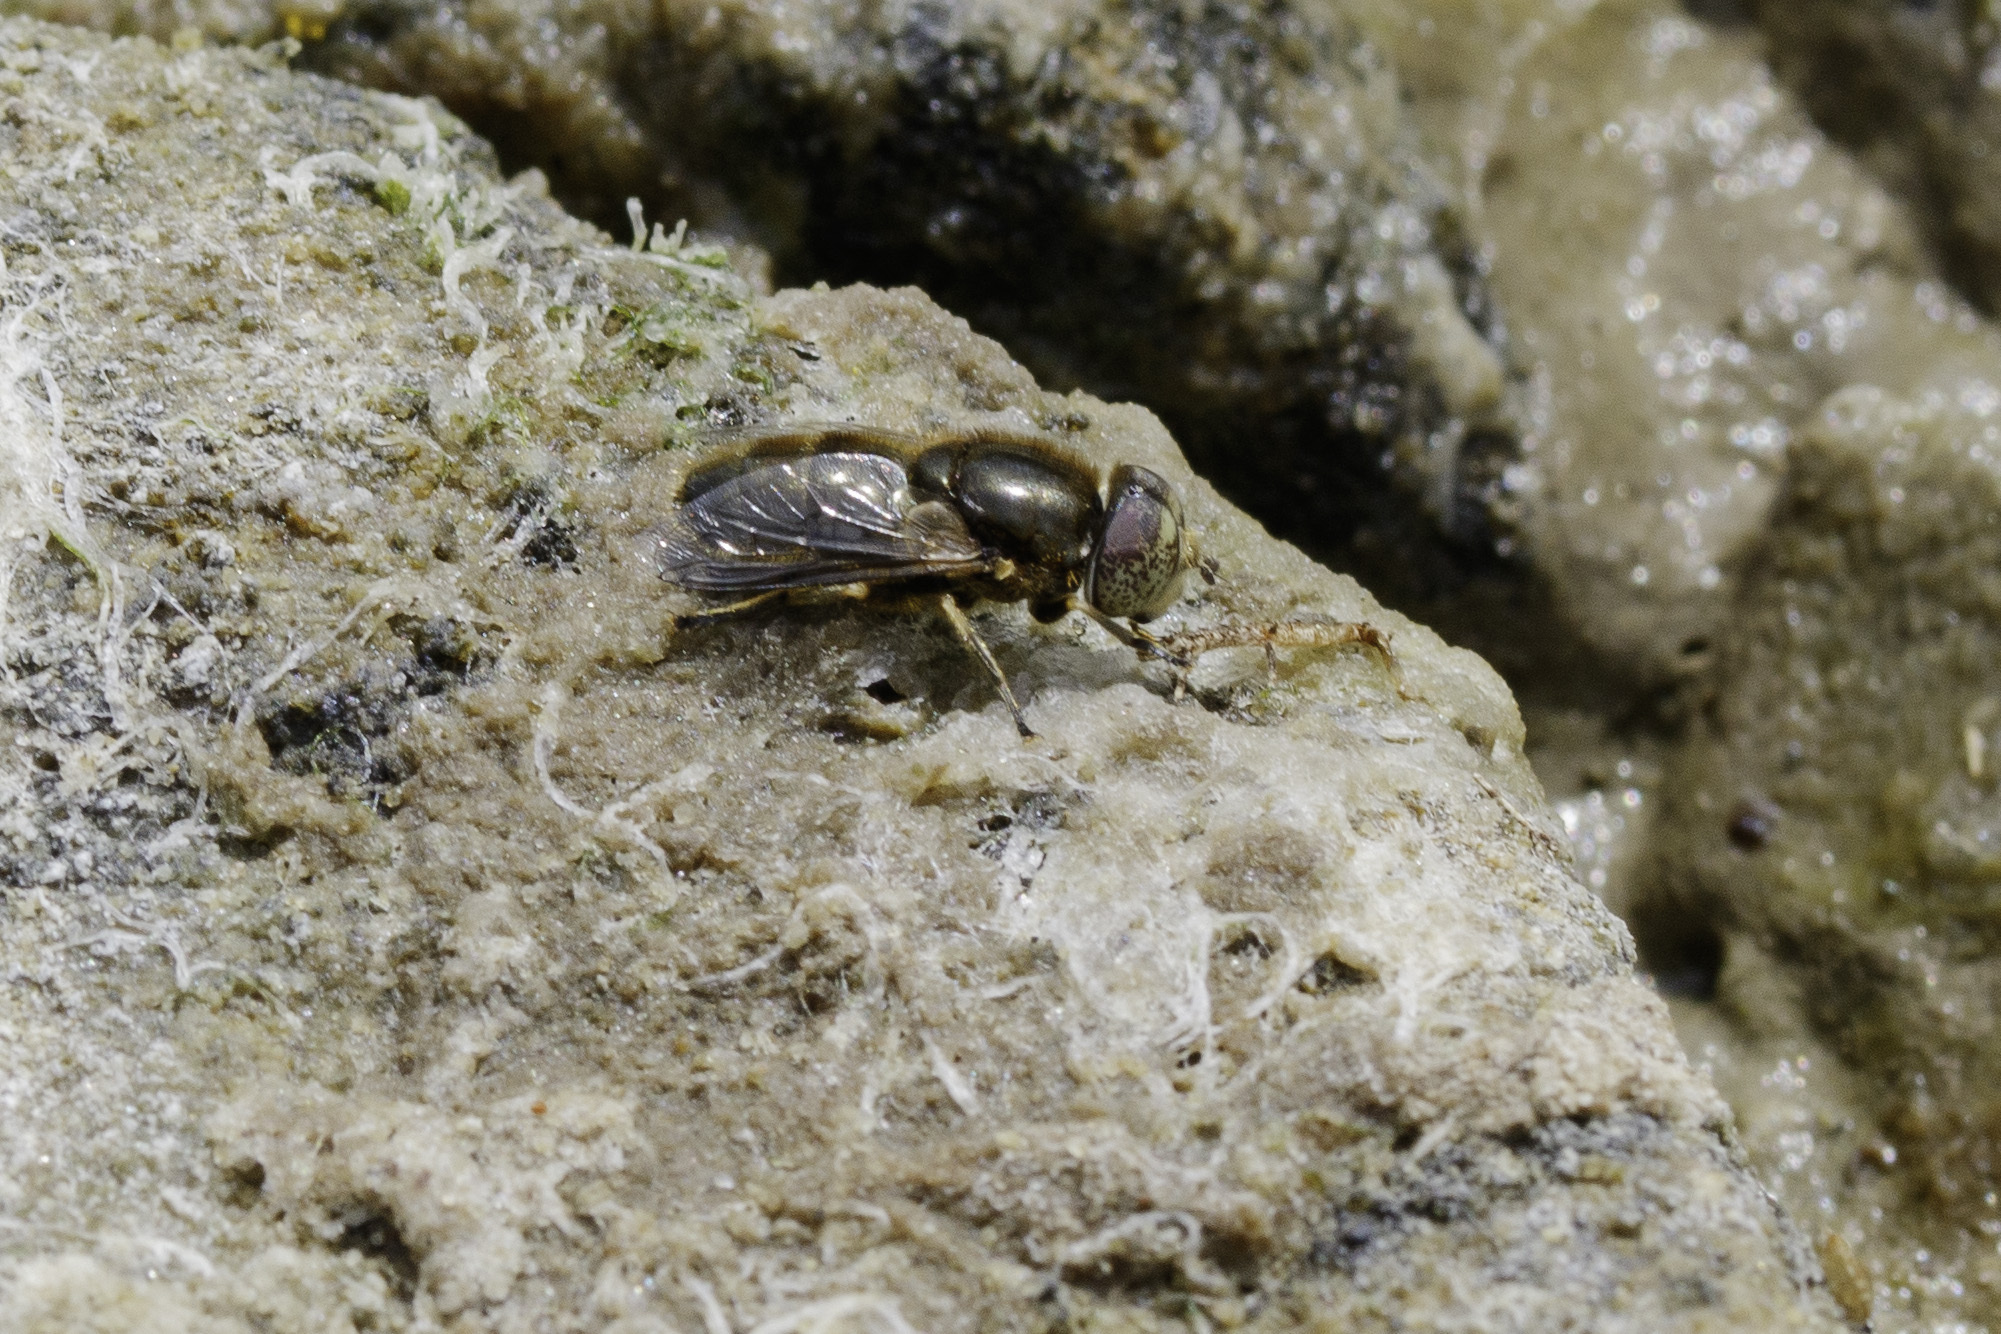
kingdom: Animalia
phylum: Arthropoda
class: Insecta
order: Diptera
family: Syrphidae
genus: Eristalinus
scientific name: Eristalinus aeneus
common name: Syrphid fly
